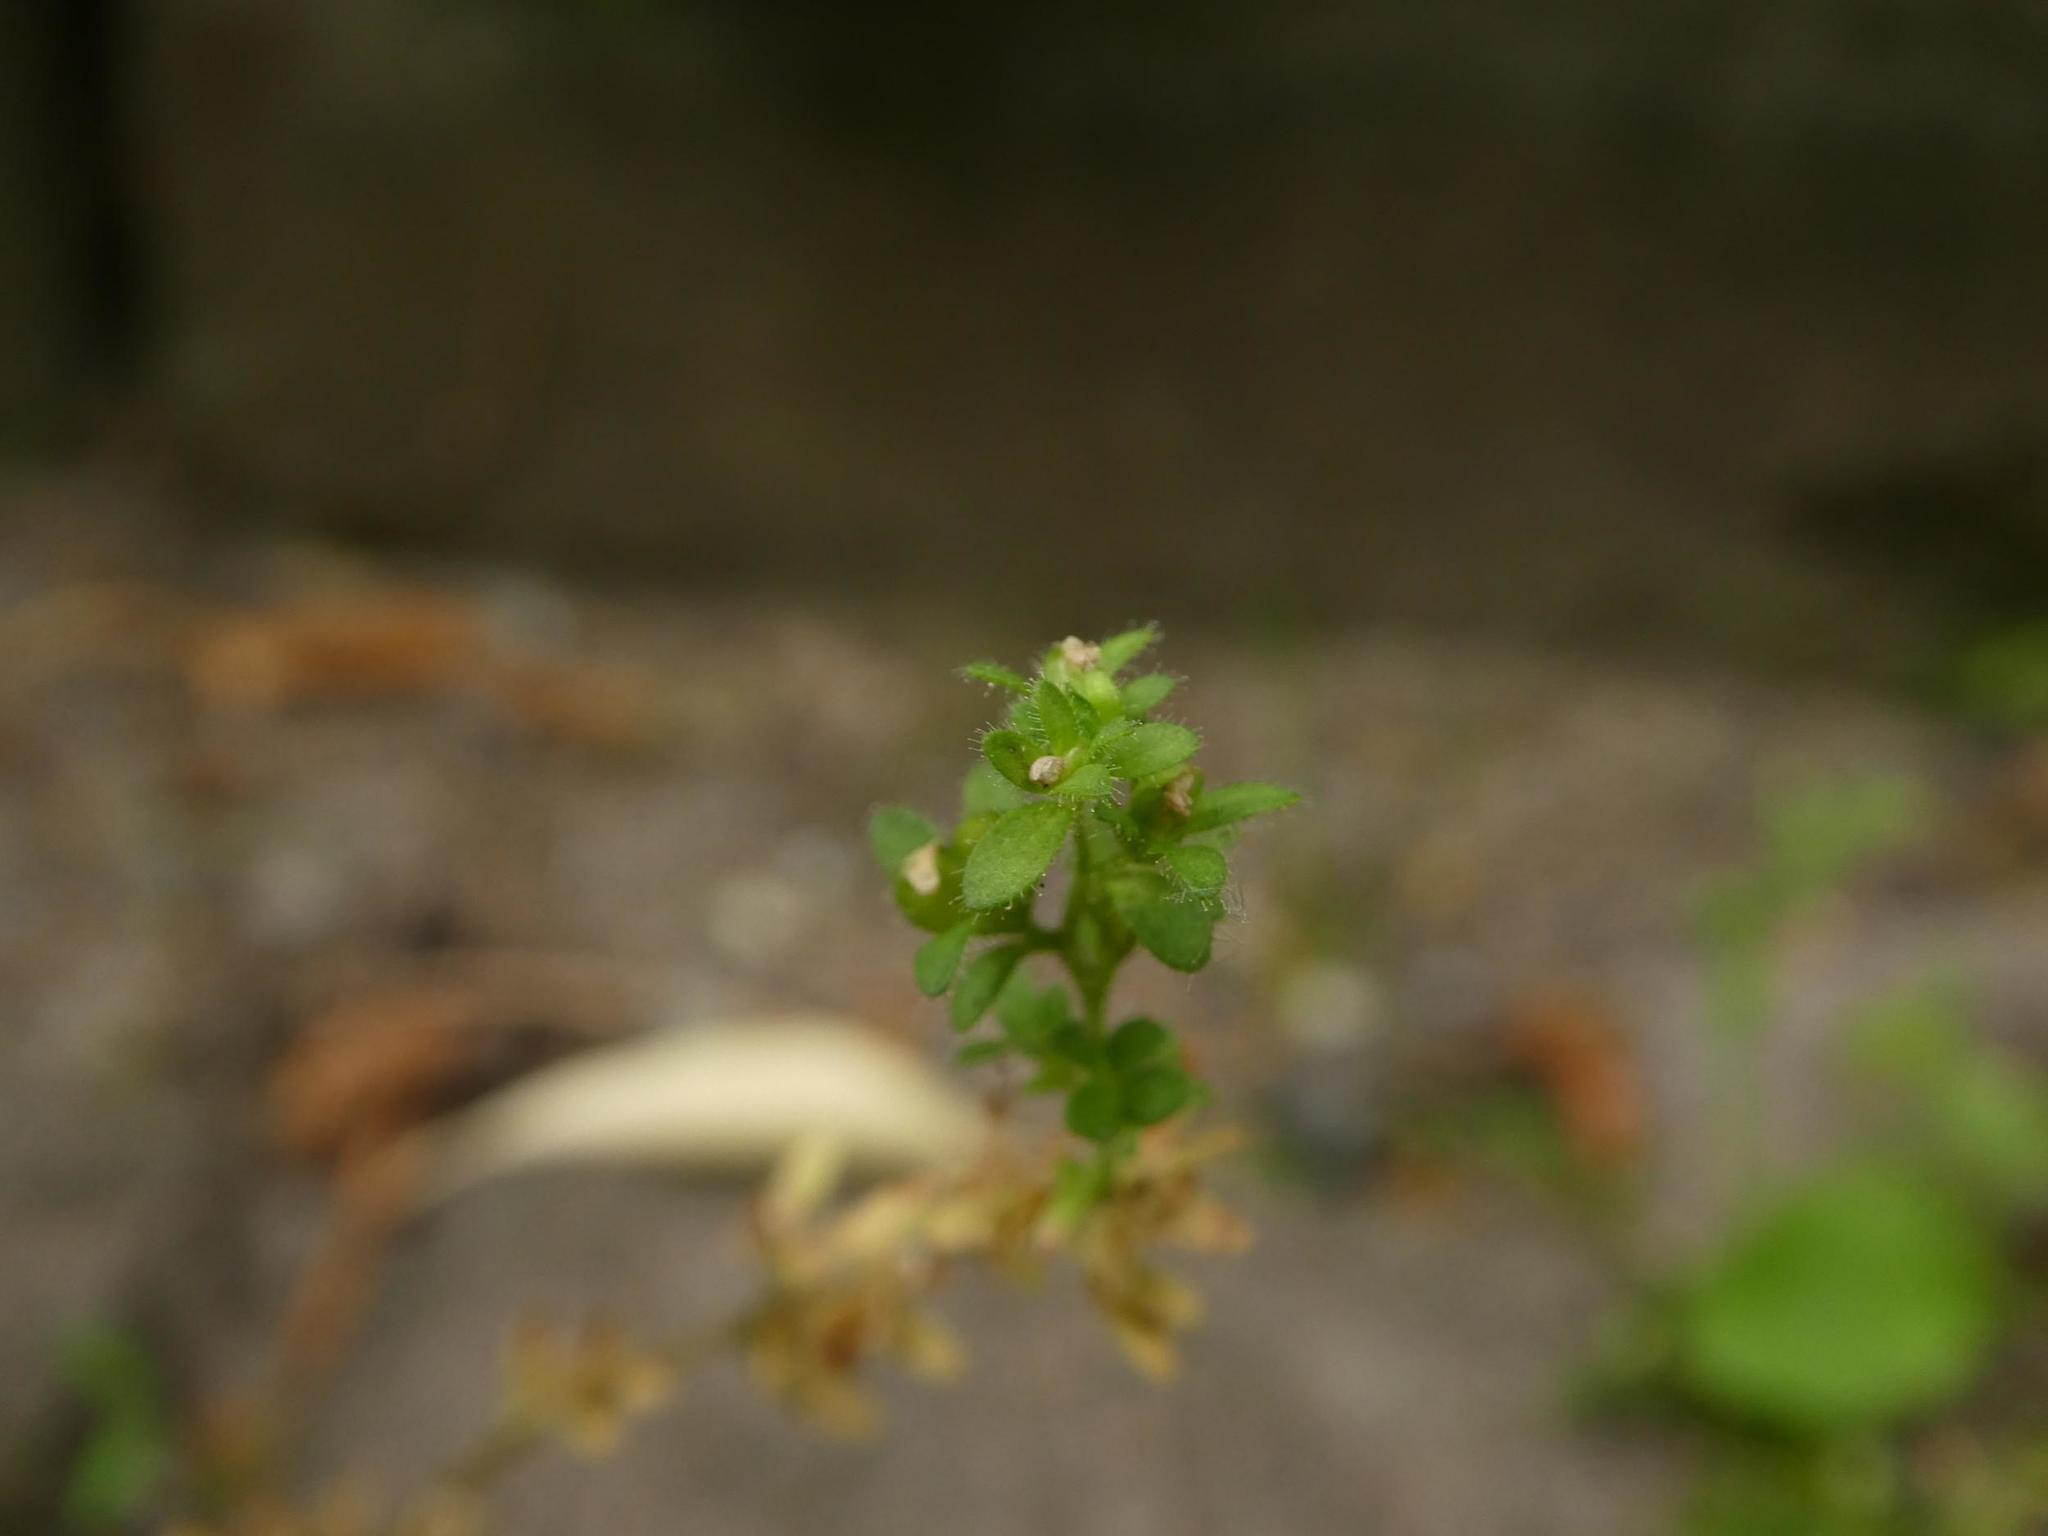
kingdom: Plantae
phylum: Tracheophyta
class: Magnoliopsida
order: Lamiales
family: Plantaginaceae
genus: Veronica
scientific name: Veronica arvensis
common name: Corn speedwell
